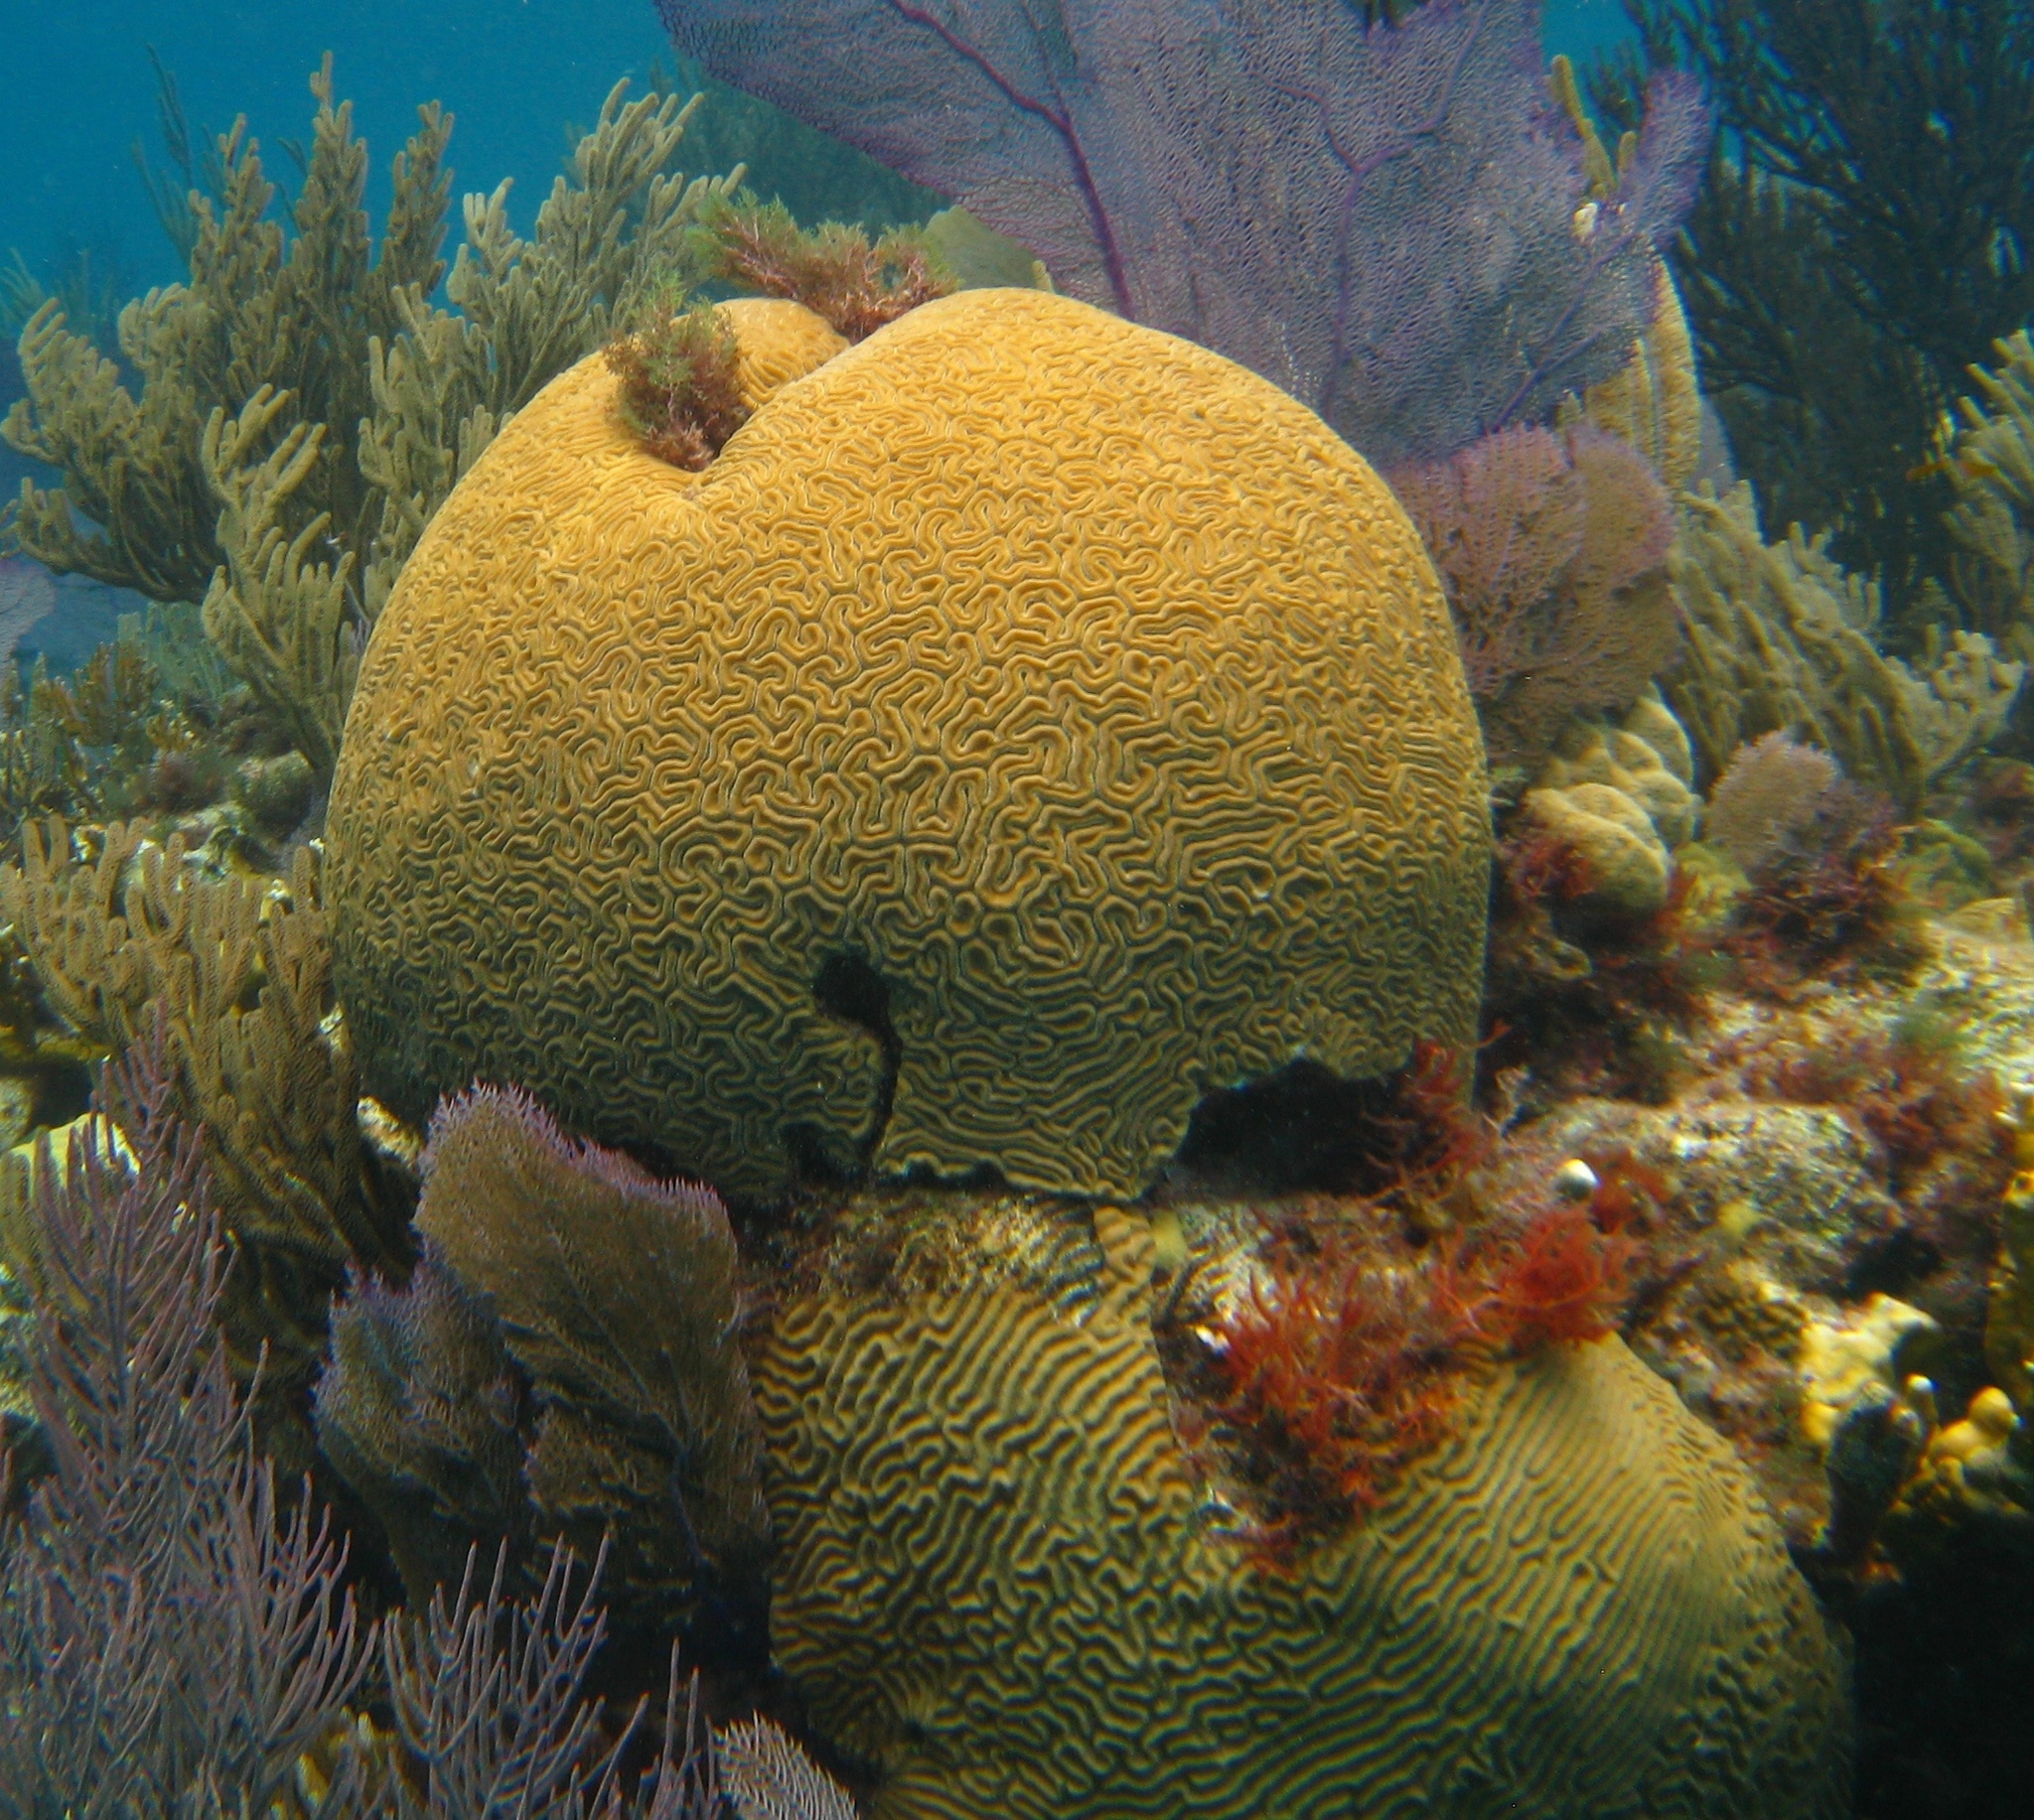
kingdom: Animalia
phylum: Cnidaria
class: Anthozoa
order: Scleractinia
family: Faviidae
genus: Diploria
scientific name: Diploria labyrinthiformis
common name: Grooved brain coral
